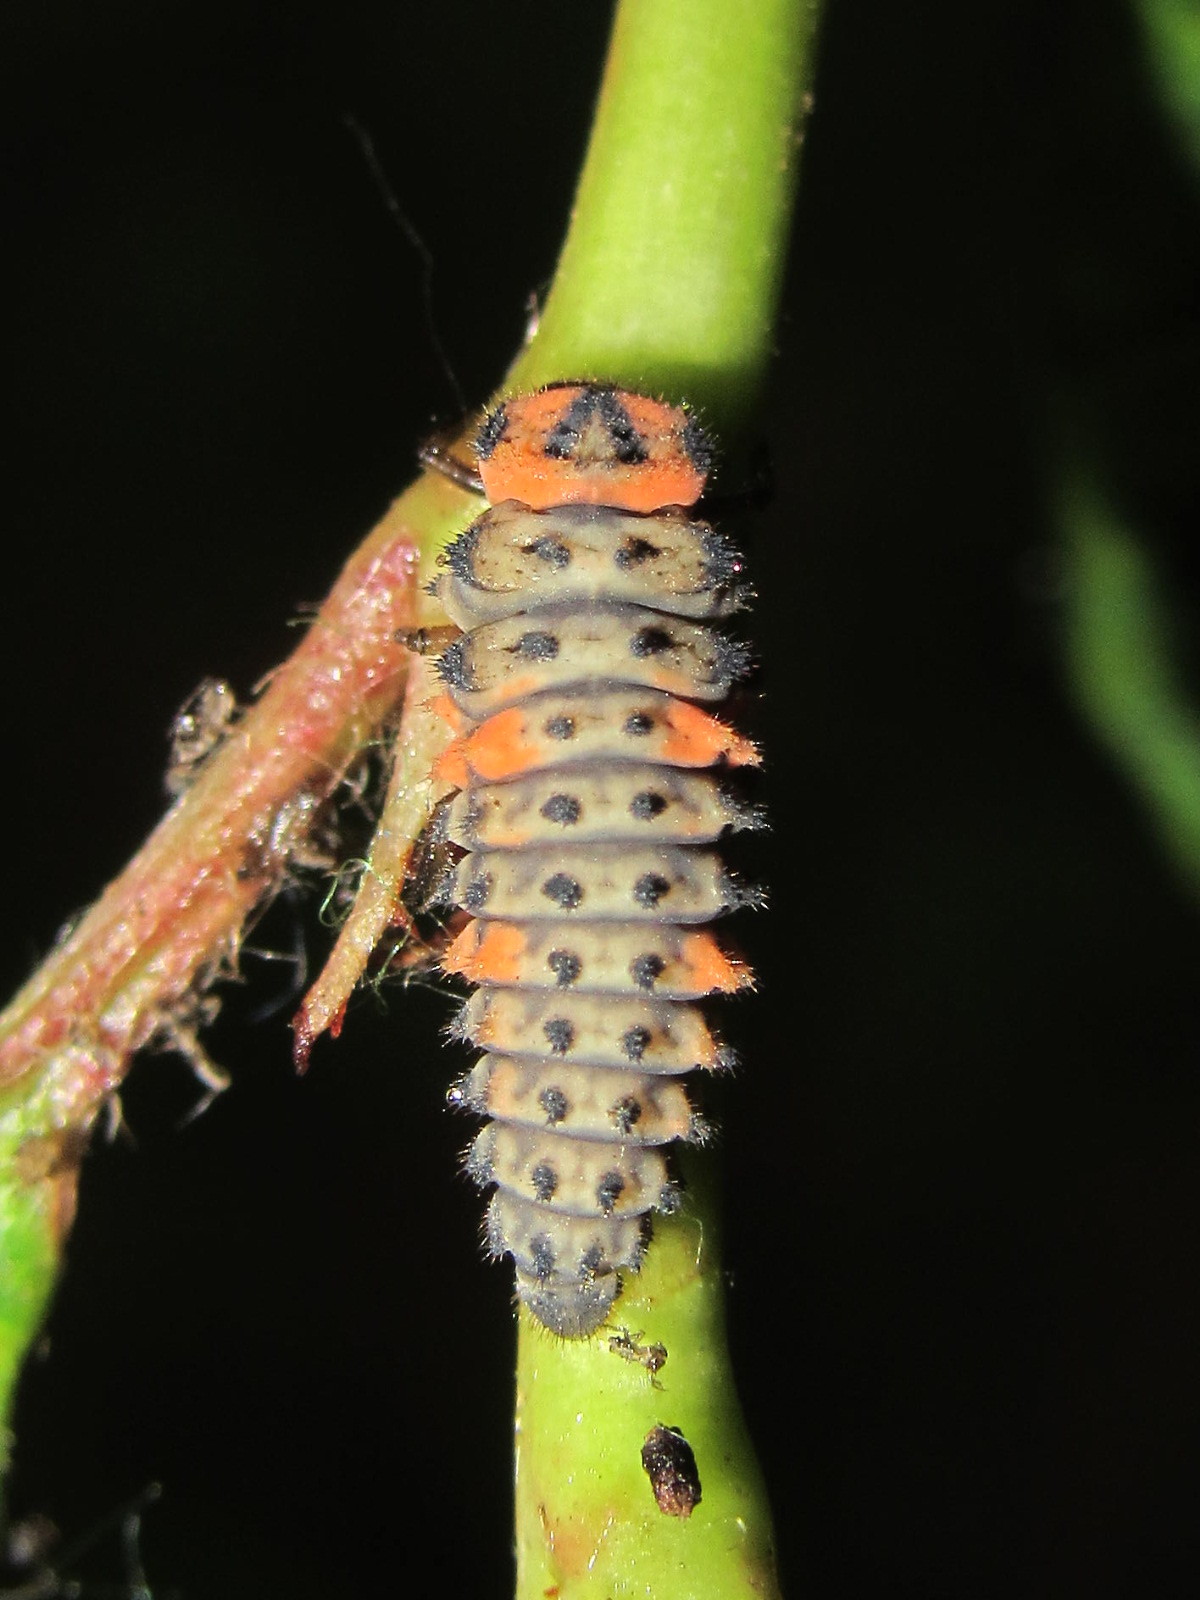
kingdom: Animalia
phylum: Arthropoda
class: Insecta
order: Coleoptera
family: Coccinellidae
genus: Coccinella
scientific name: Coccinella magnifica
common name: Scarce 7-spot ladybird
